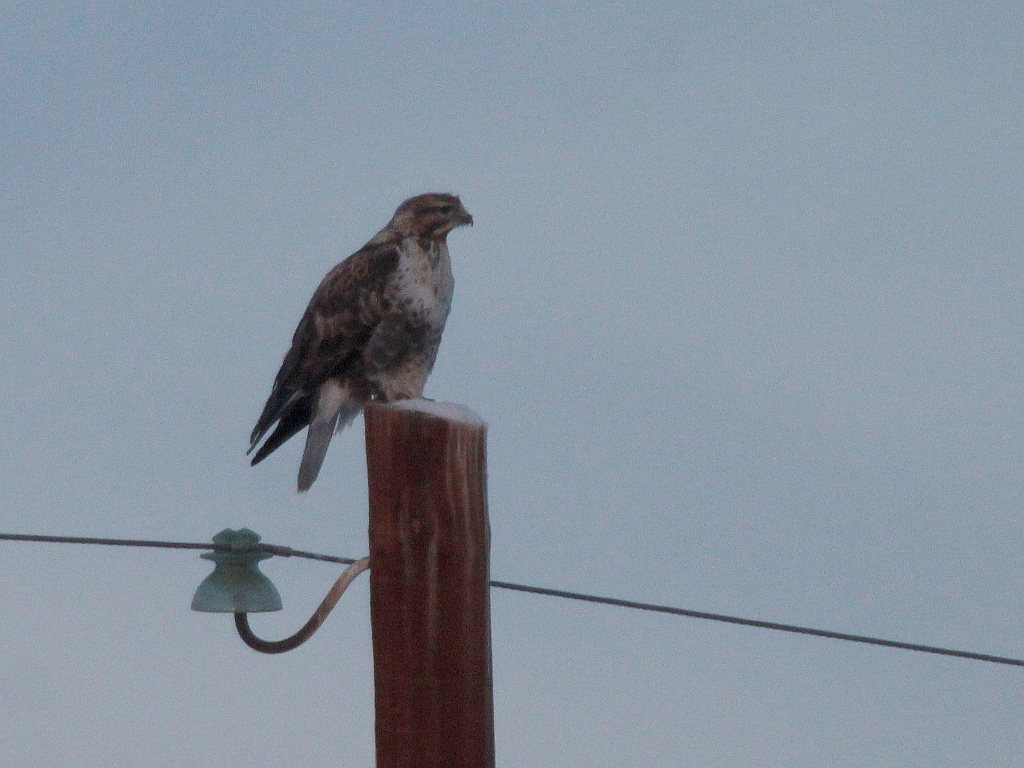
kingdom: Animalia
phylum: Chordata
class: Aves
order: Accipitriformes
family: Accipitridae
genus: Buteo
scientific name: Buteo hemilasius
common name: Upland buzzard
